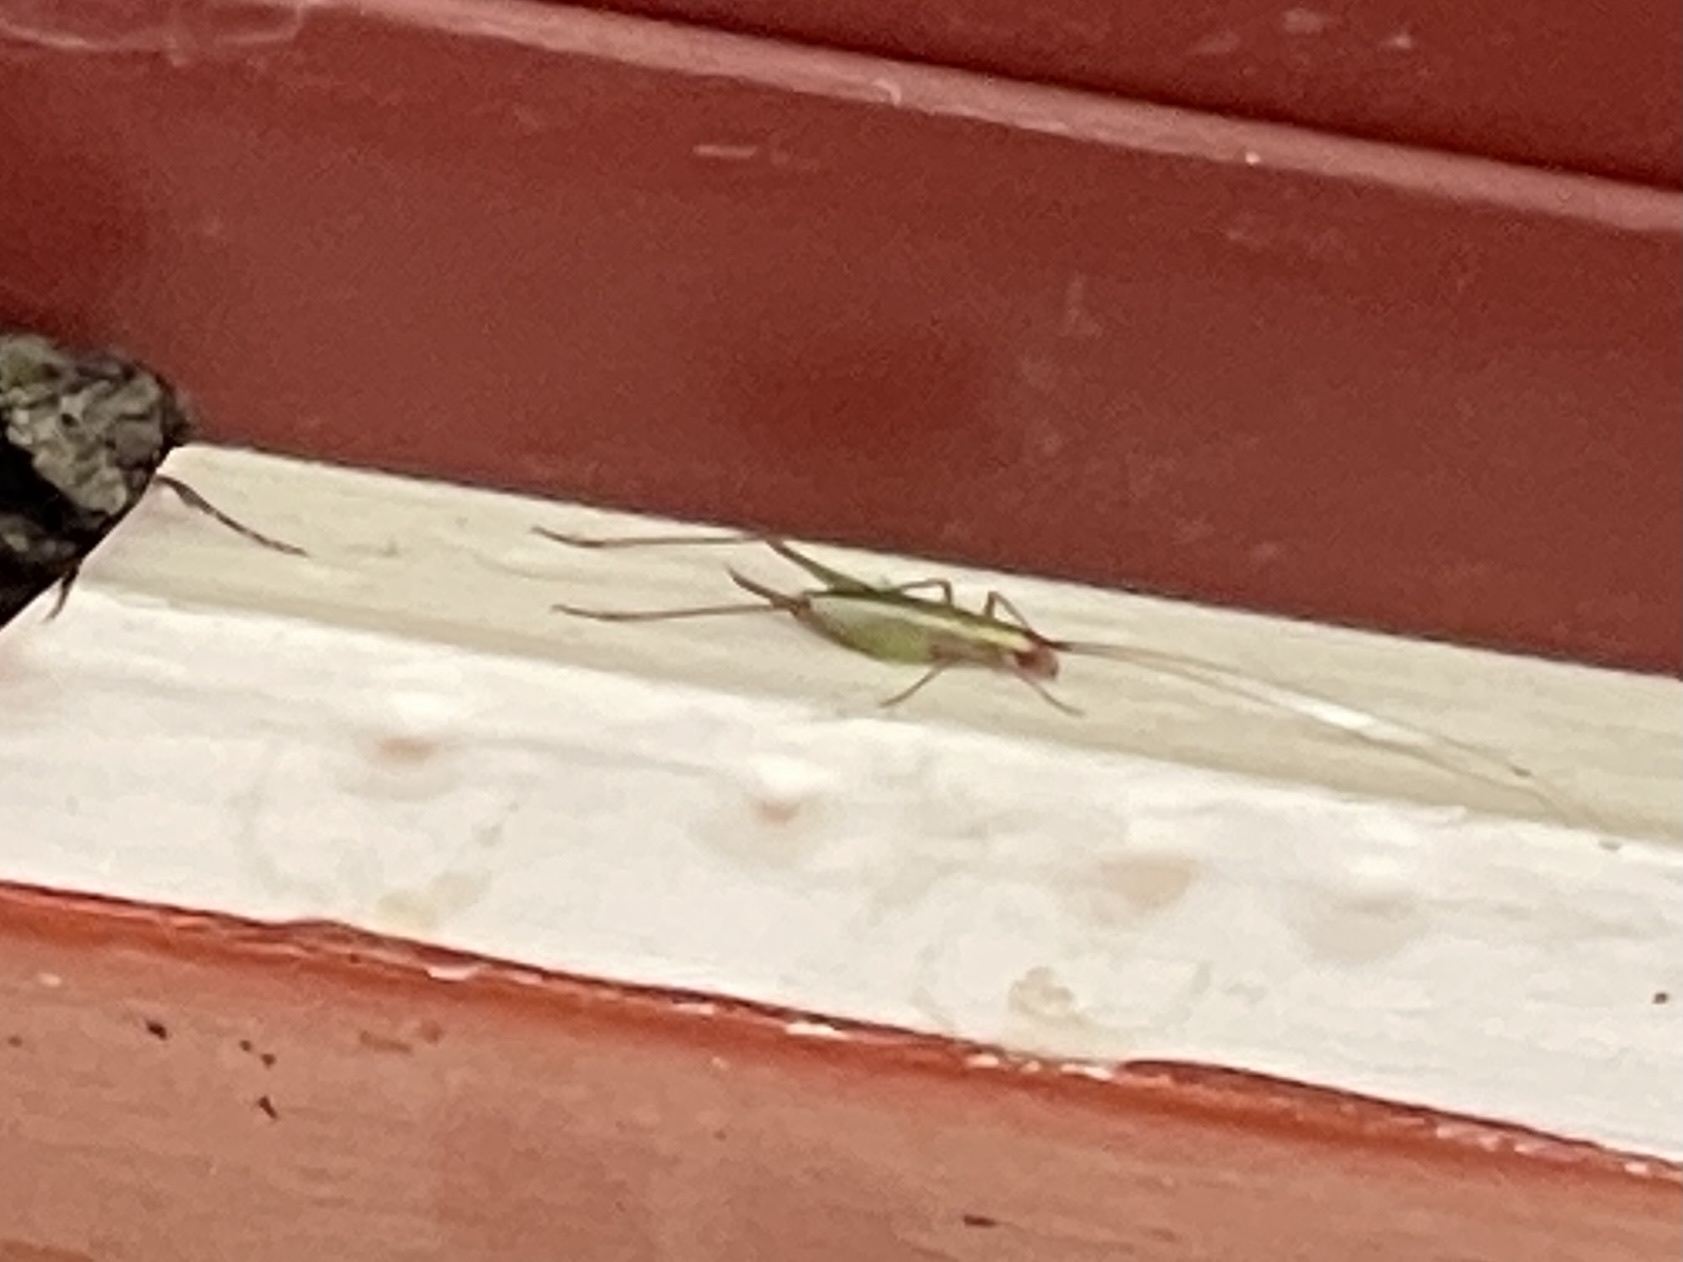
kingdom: Animalia
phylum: Arthropoda
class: Insecta
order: Orthoptera
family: Gryllidae
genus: Oecanthus
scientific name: Oecanthus californicus
